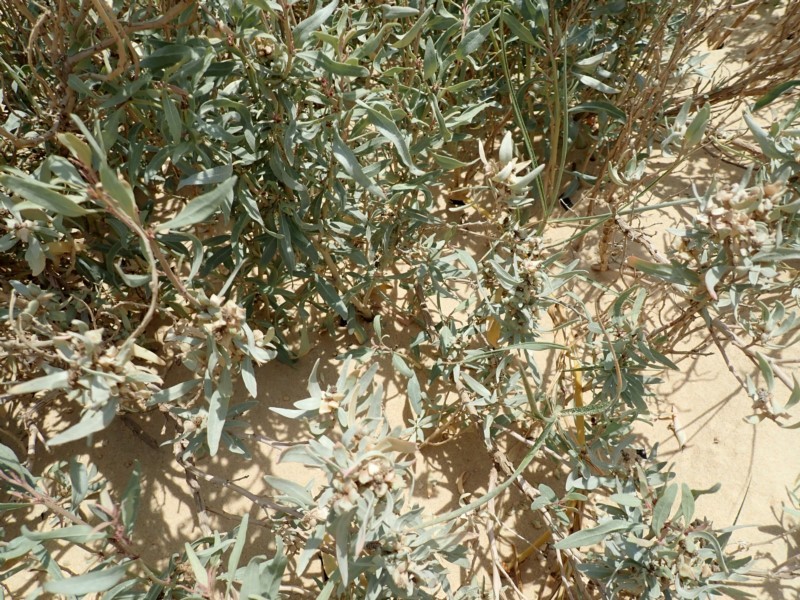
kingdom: Plantae
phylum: Tracheophyta
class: Magnoliopsida
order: Caryophyllales
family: Amaranthaceae
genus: Atriplex
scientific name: Atriplex cinerea
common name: Grey saltbush
